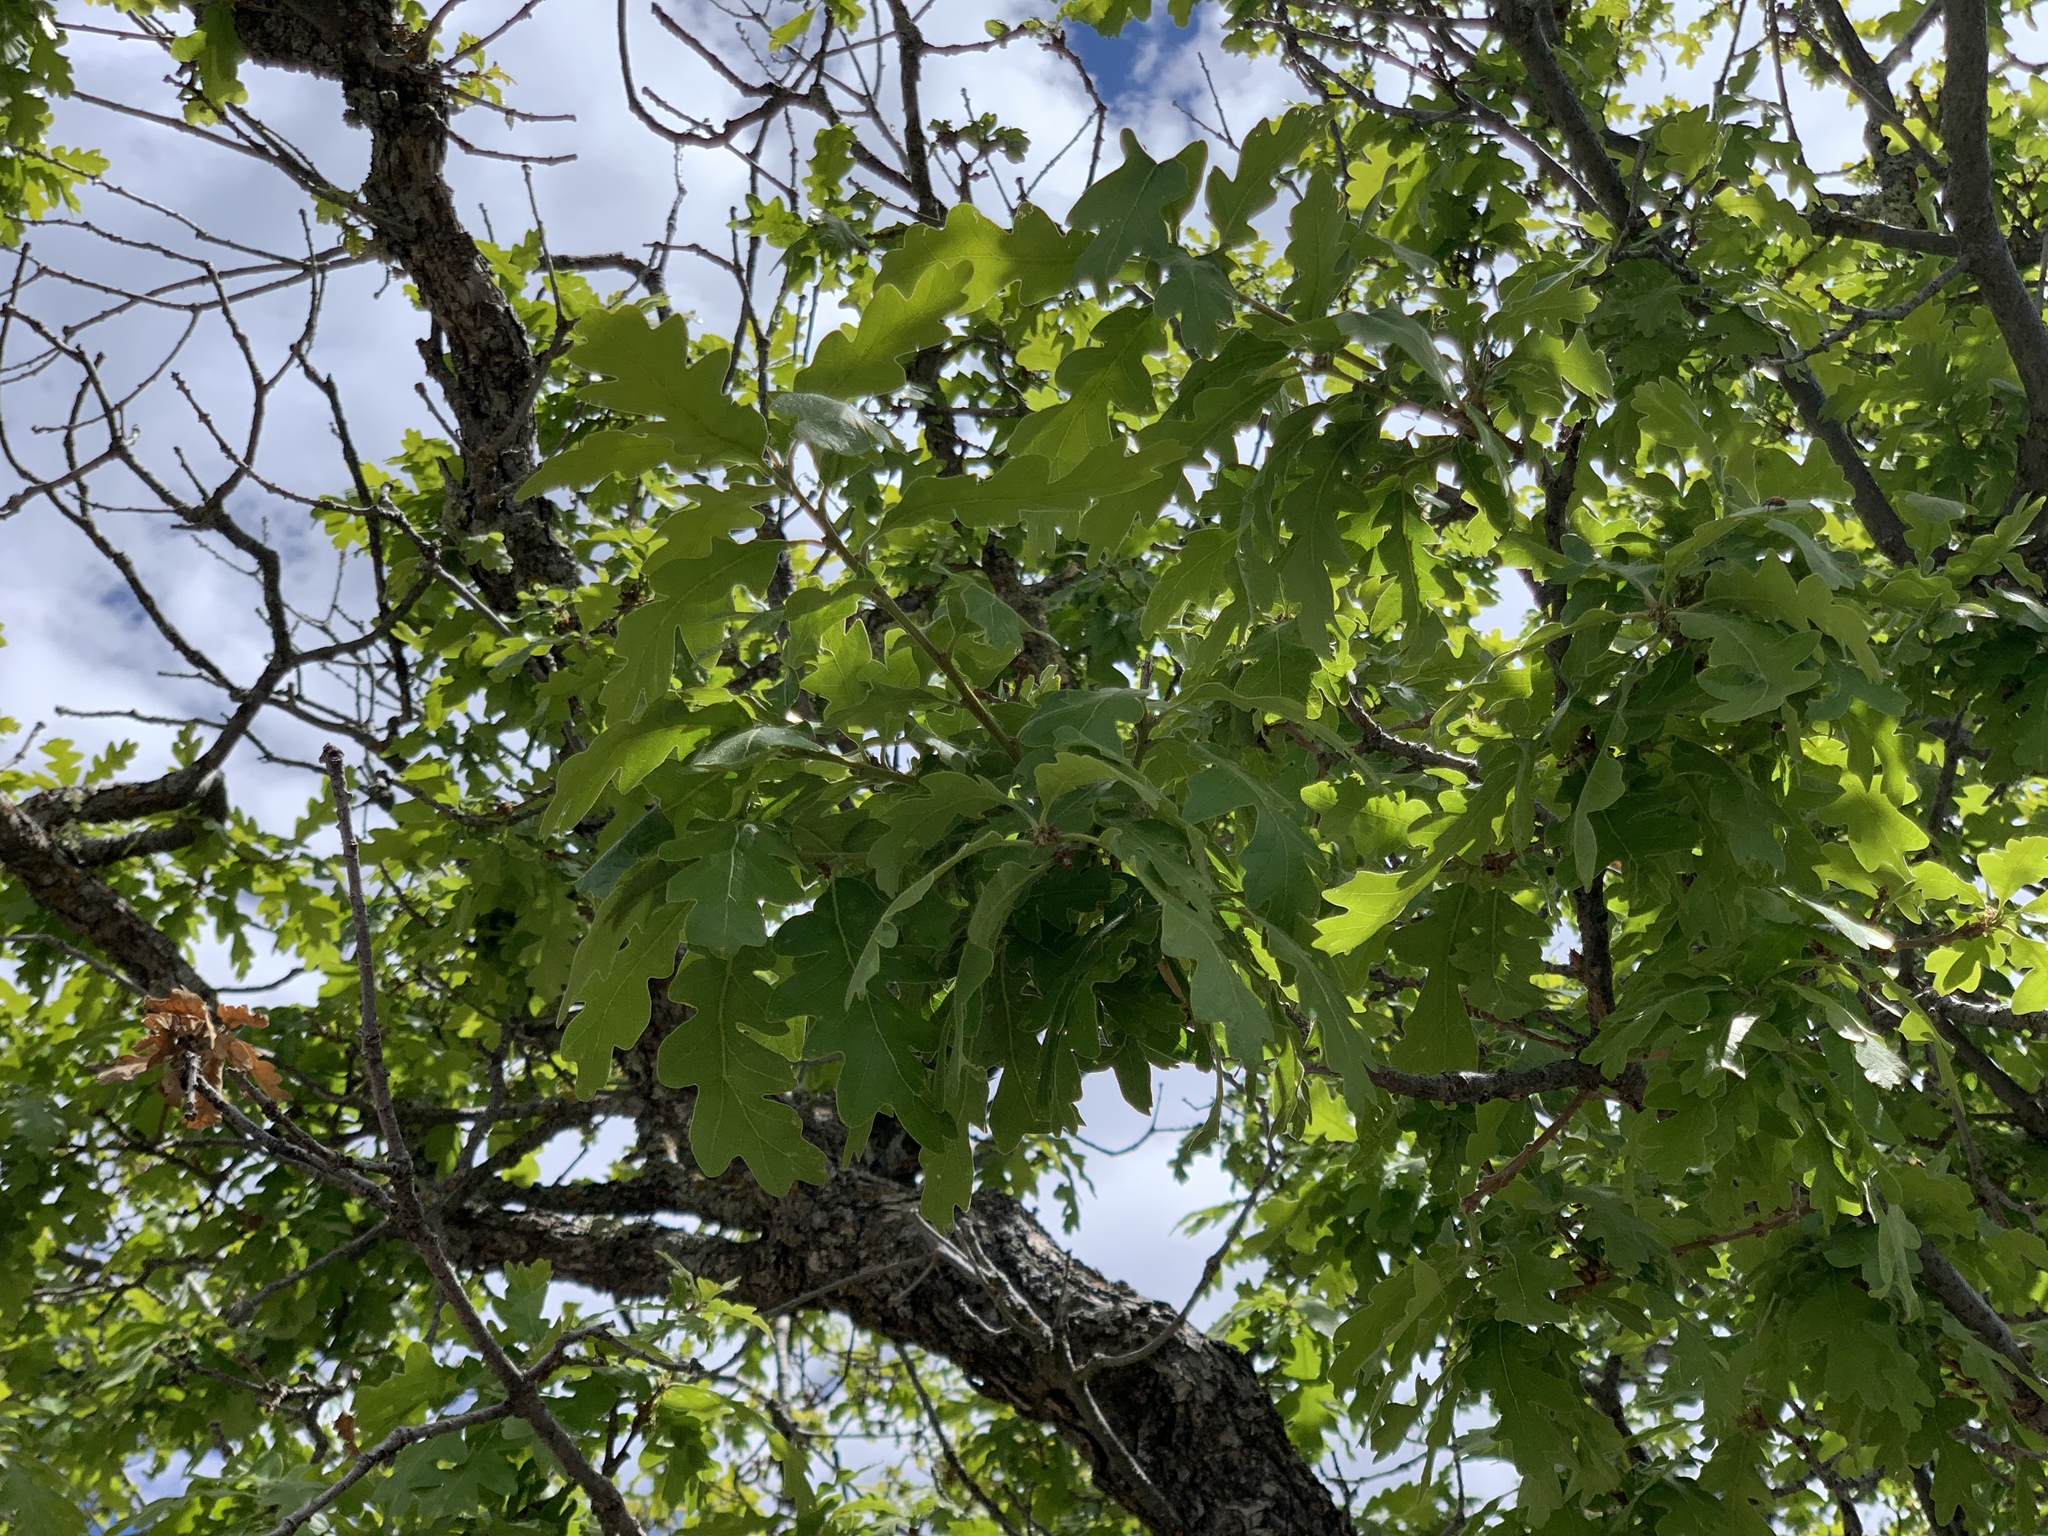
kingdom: Plantae
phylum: Tracheophyta
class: Magnoliopsida
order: Fagales
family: Fagaceae
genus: Quercus
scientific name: Quercus gambelii
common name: Gambel oak
